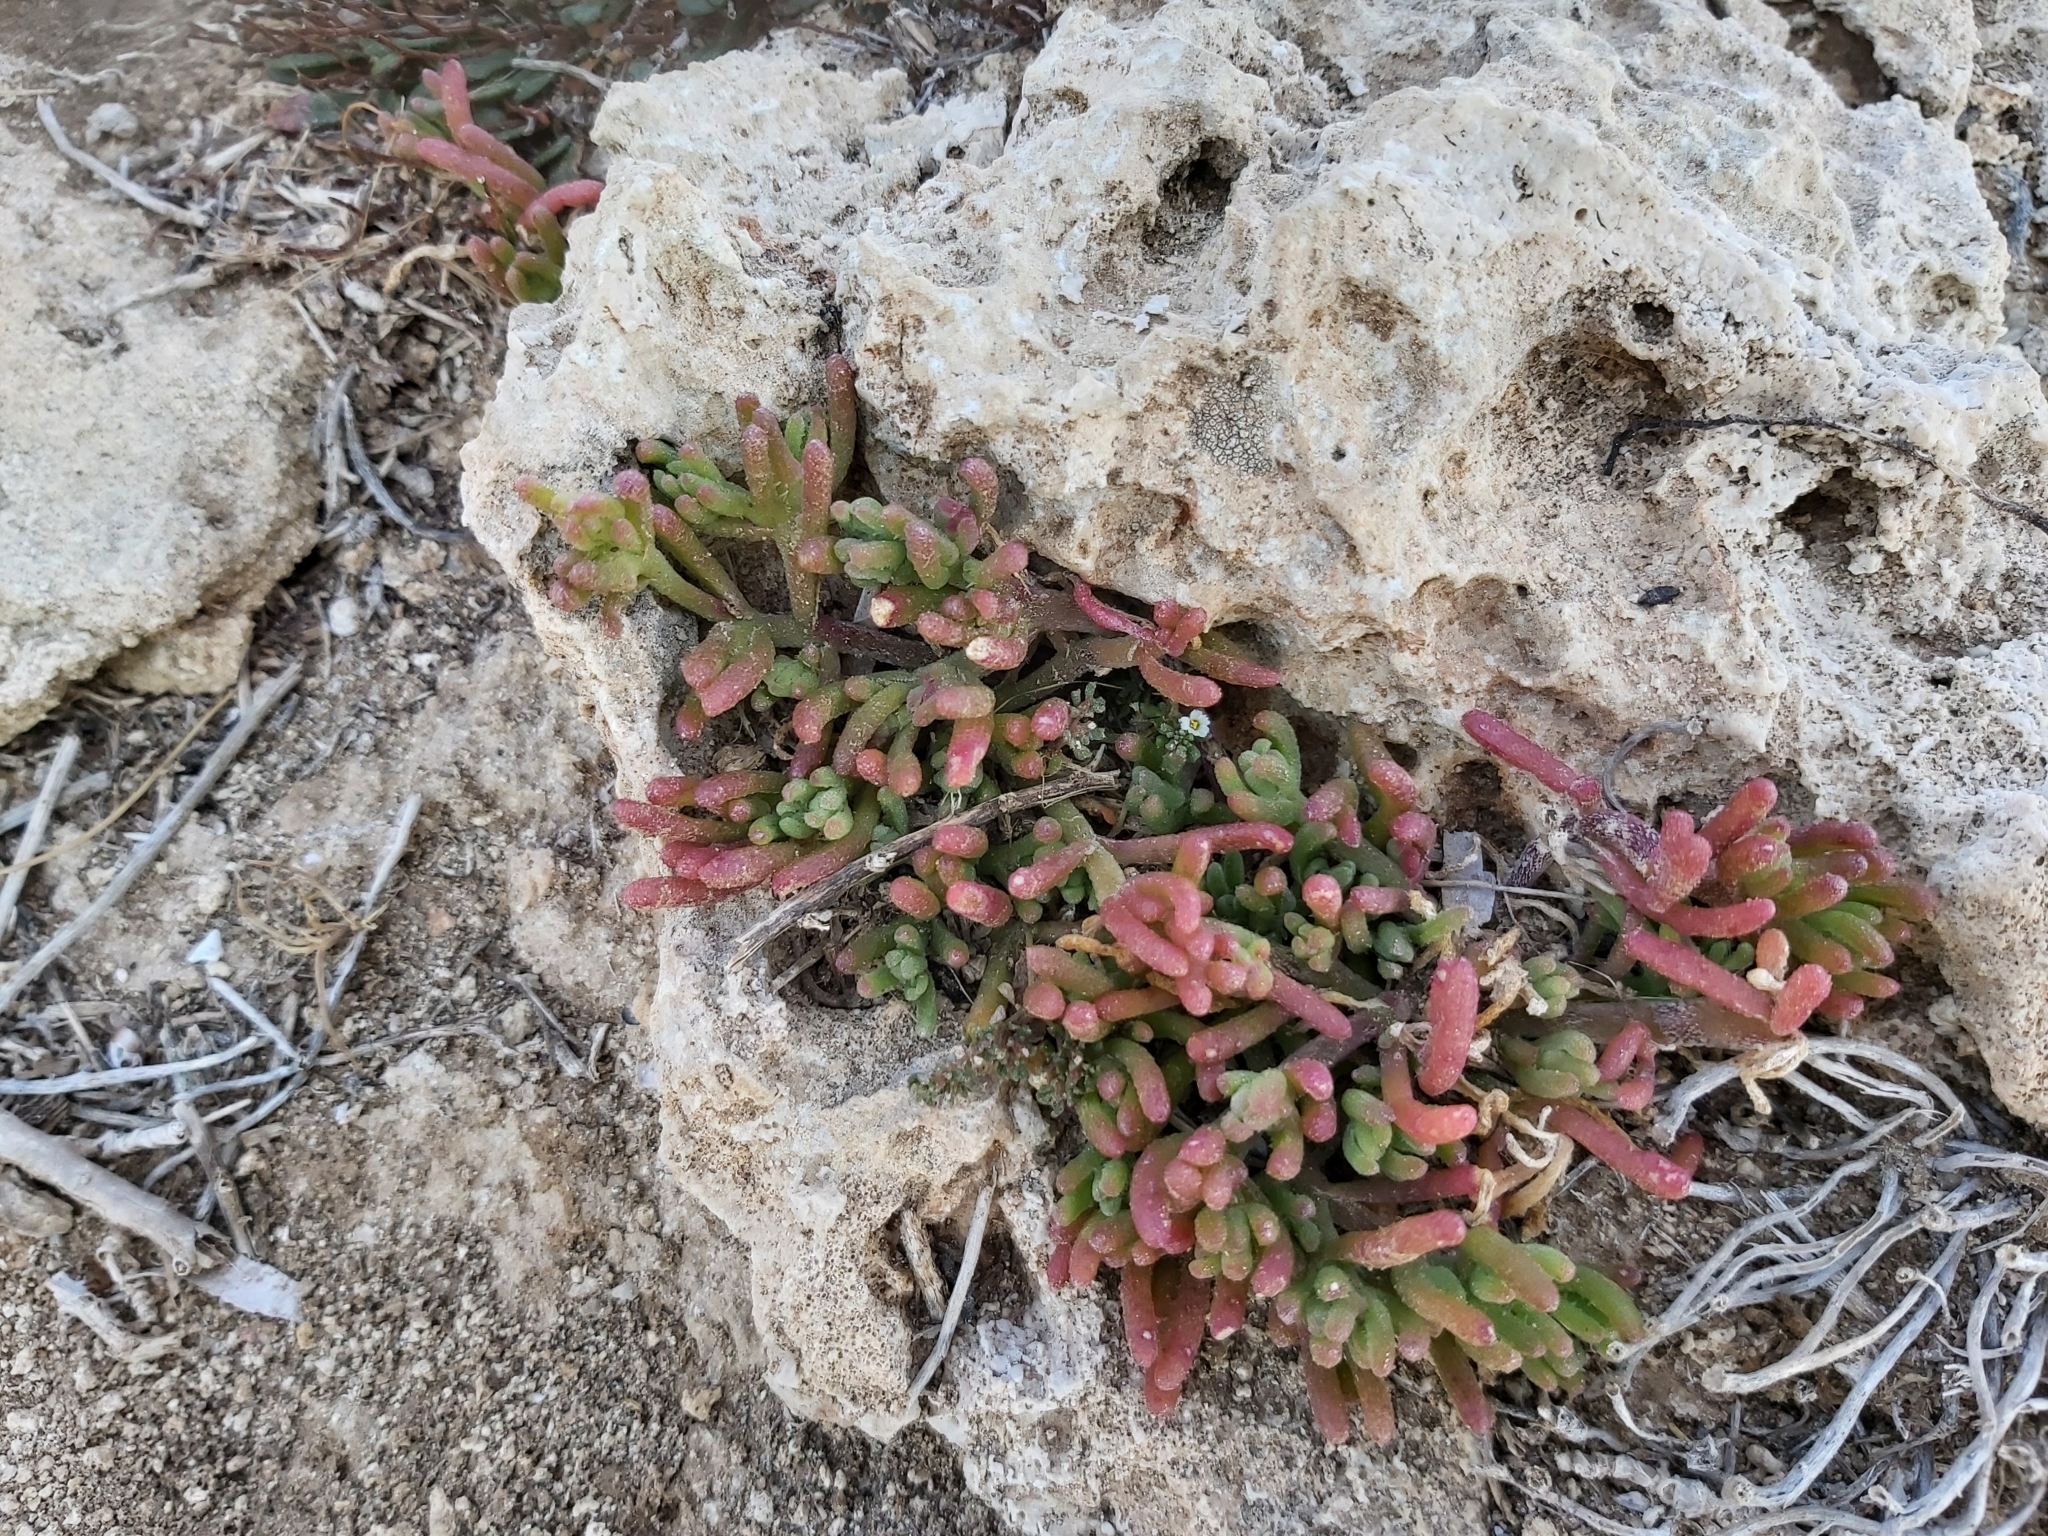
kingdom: Plantae
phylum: Tracheophyta
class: Magnoliopsida
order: Caryophyllales
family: Aizoaceae
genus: Mesembryanthemum
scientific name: Mesembryanthemum nodiflorum
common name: Slenderleaf iceplant
